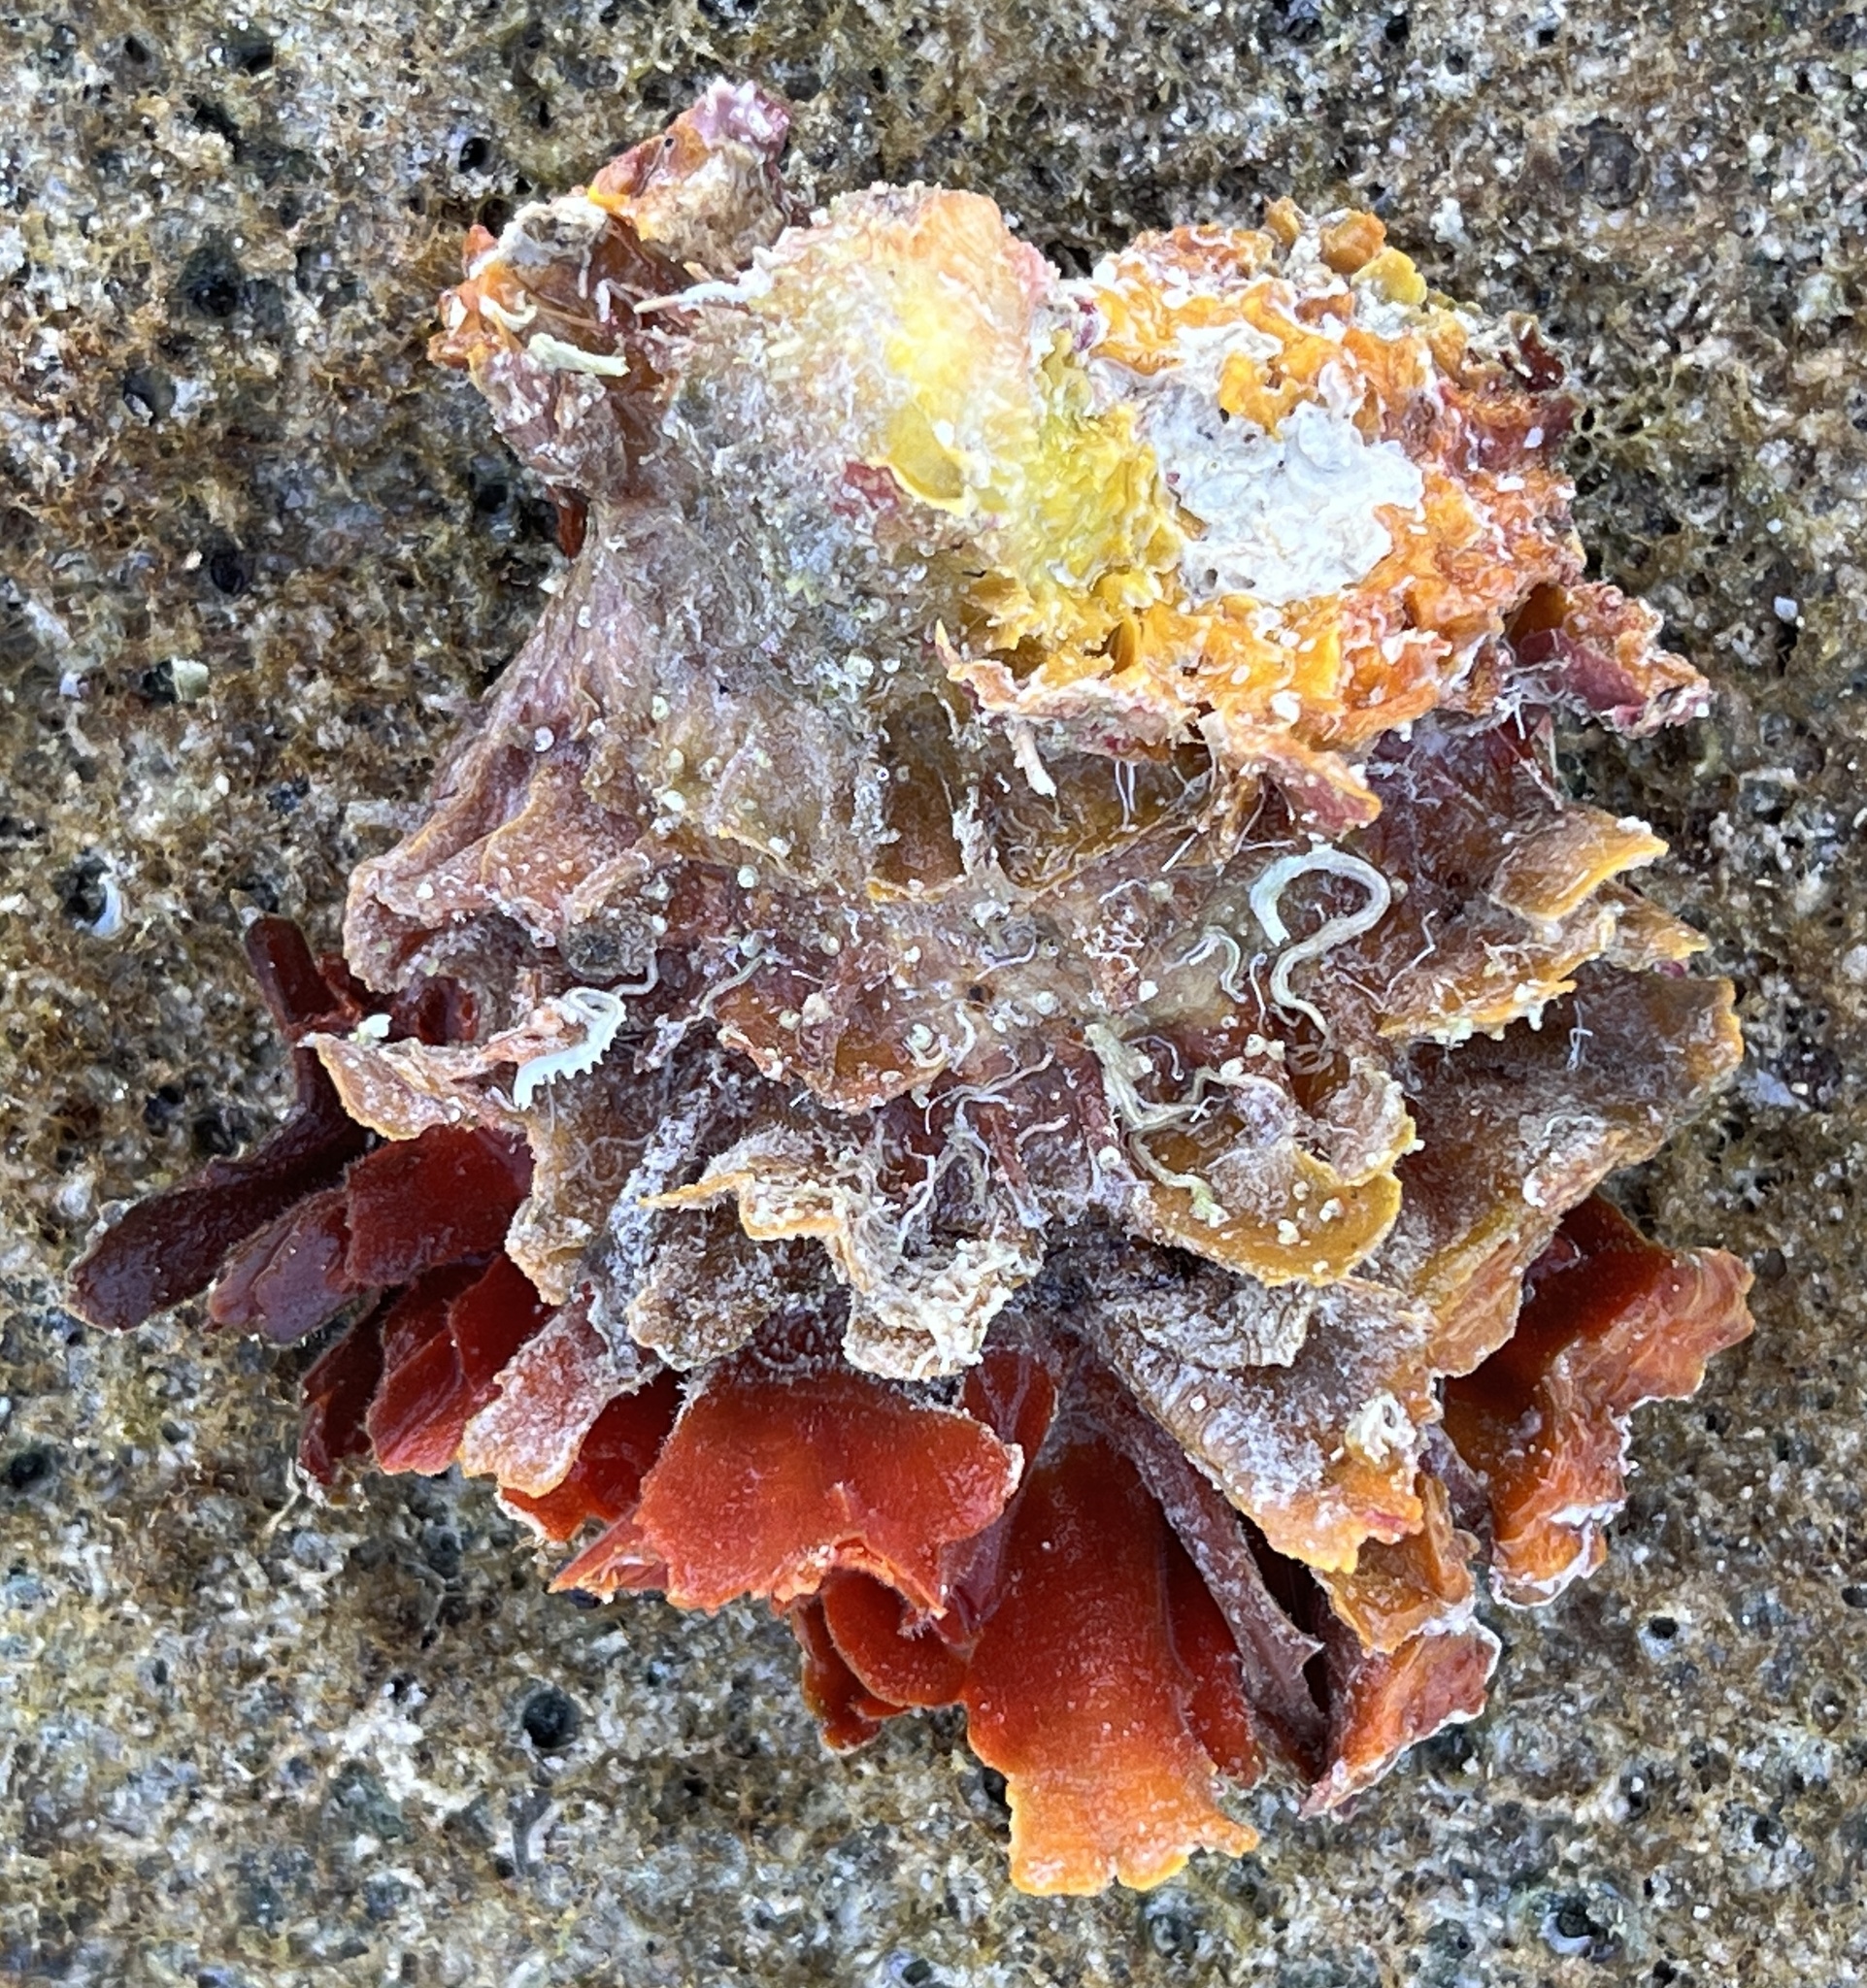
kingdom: Animalia
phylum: Mollusca
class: Bivalvia
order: Pectinida
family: Spondylidae
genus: Spondylus
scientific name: Spondylus tenuis
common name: Digitate thorny oyster
